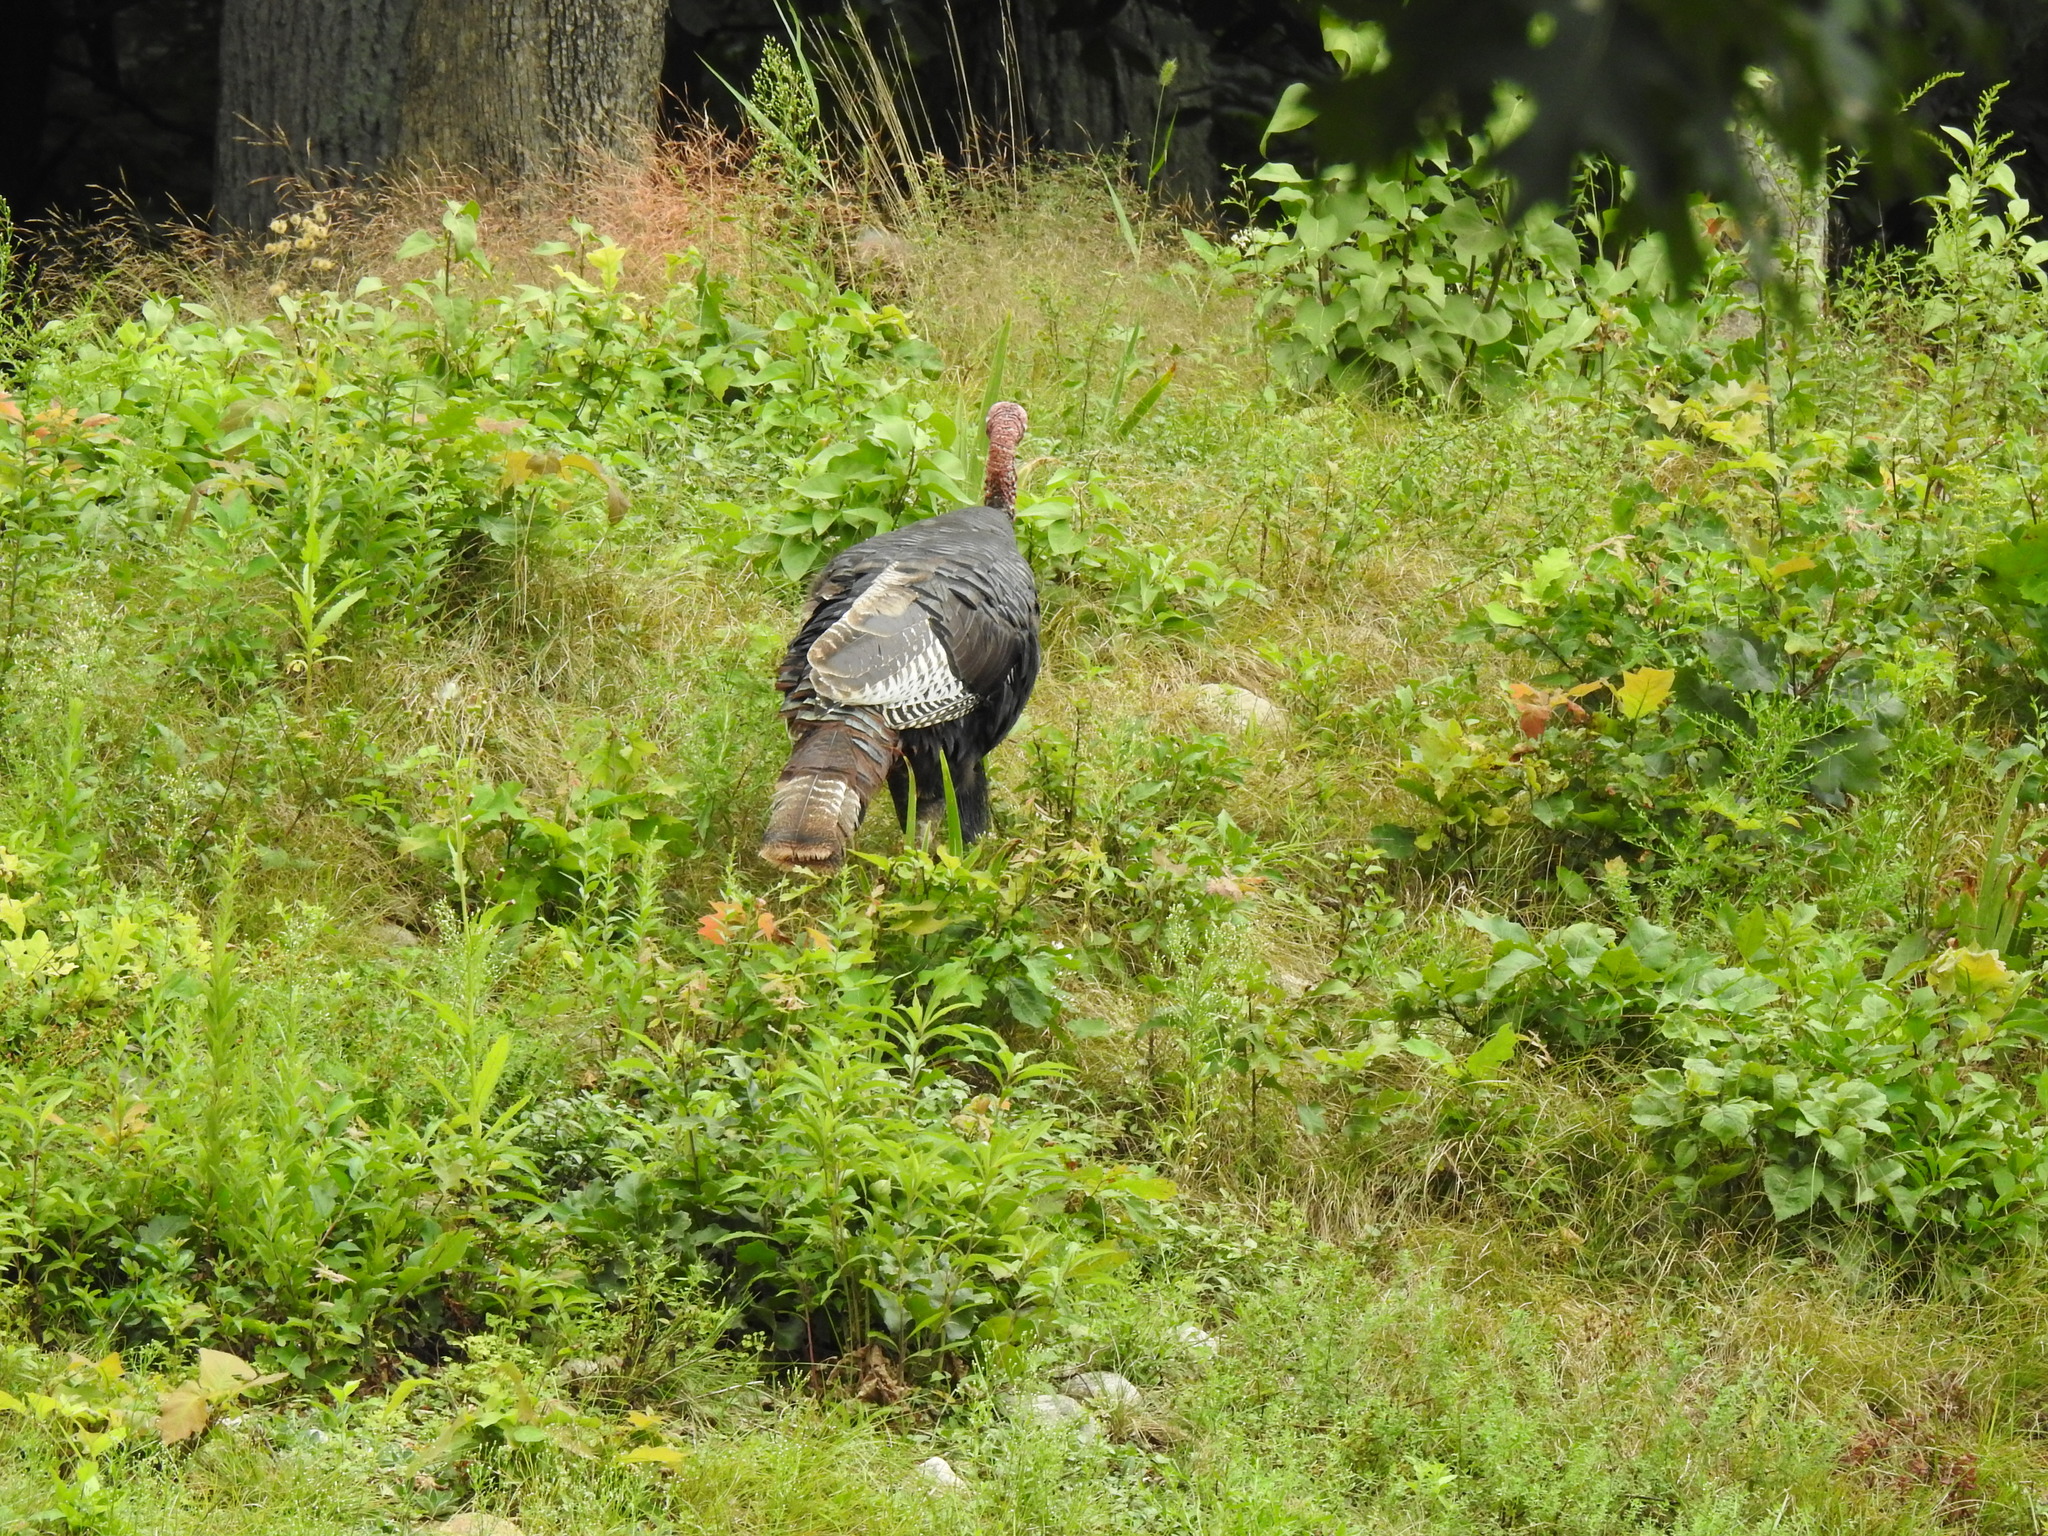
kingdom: Animalia
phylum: Chordata
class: Aves
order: Galliformes
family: Phasianidae
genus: Meleagris
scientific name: Meleagris gallopavo
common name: Wild turkey
